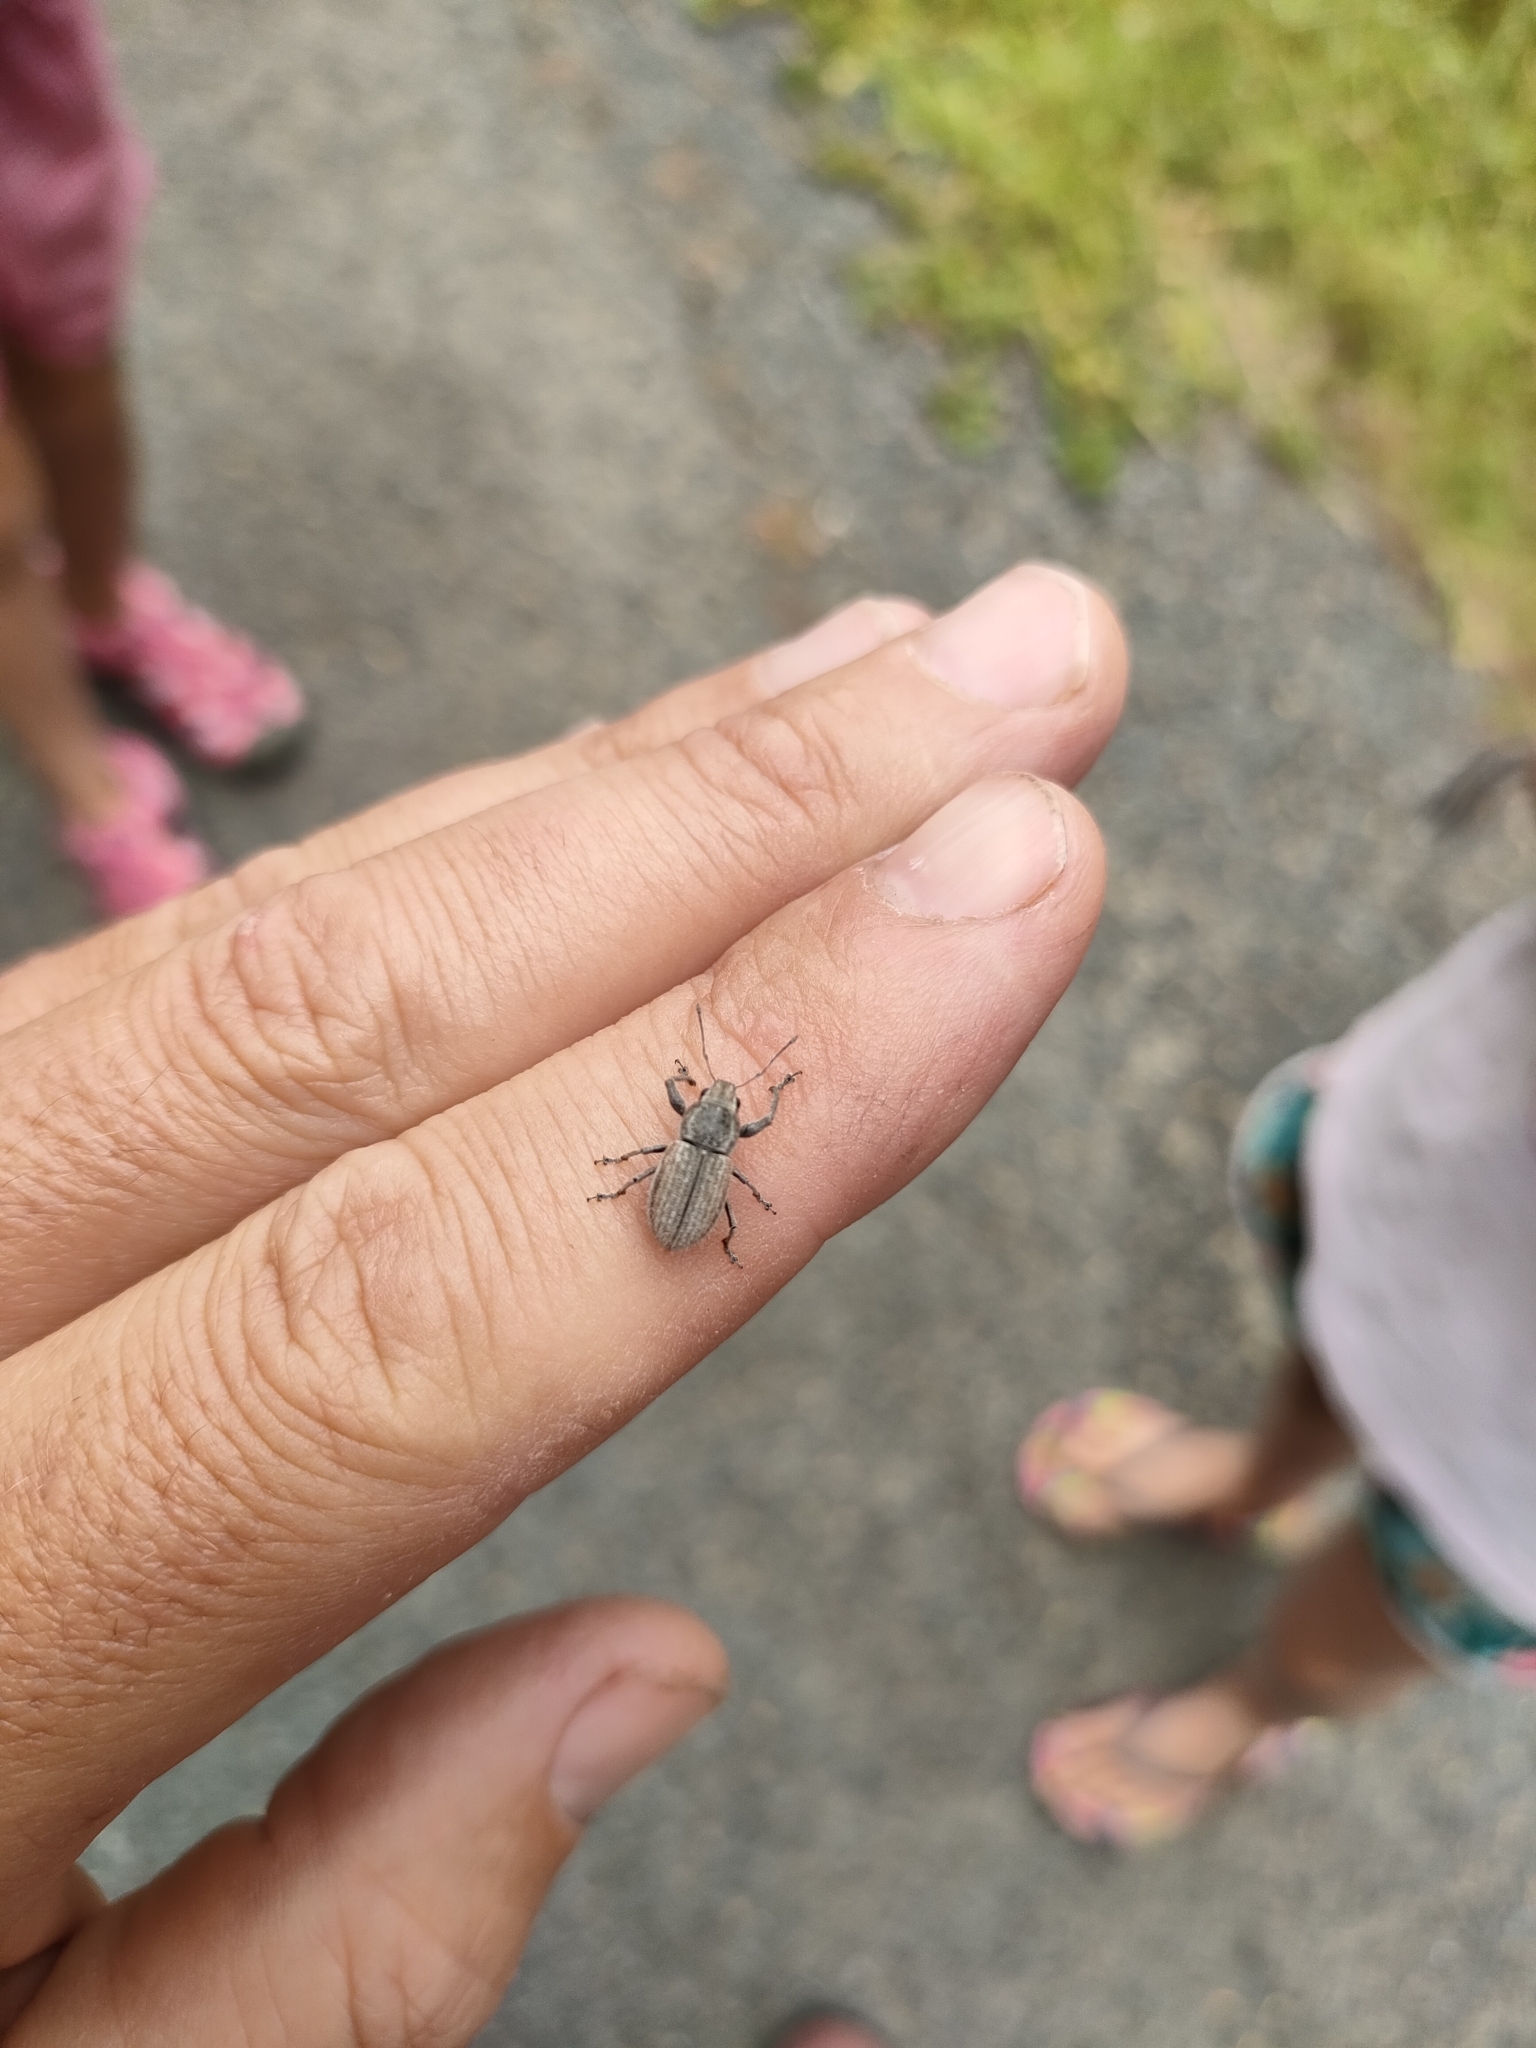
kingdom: Animalia
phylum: Arthropoda
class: Insecta
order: Coleoptera
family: Curculionidae
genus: Naupactus
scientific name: Naupactus leucoloma
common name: Whitefringed beetle
